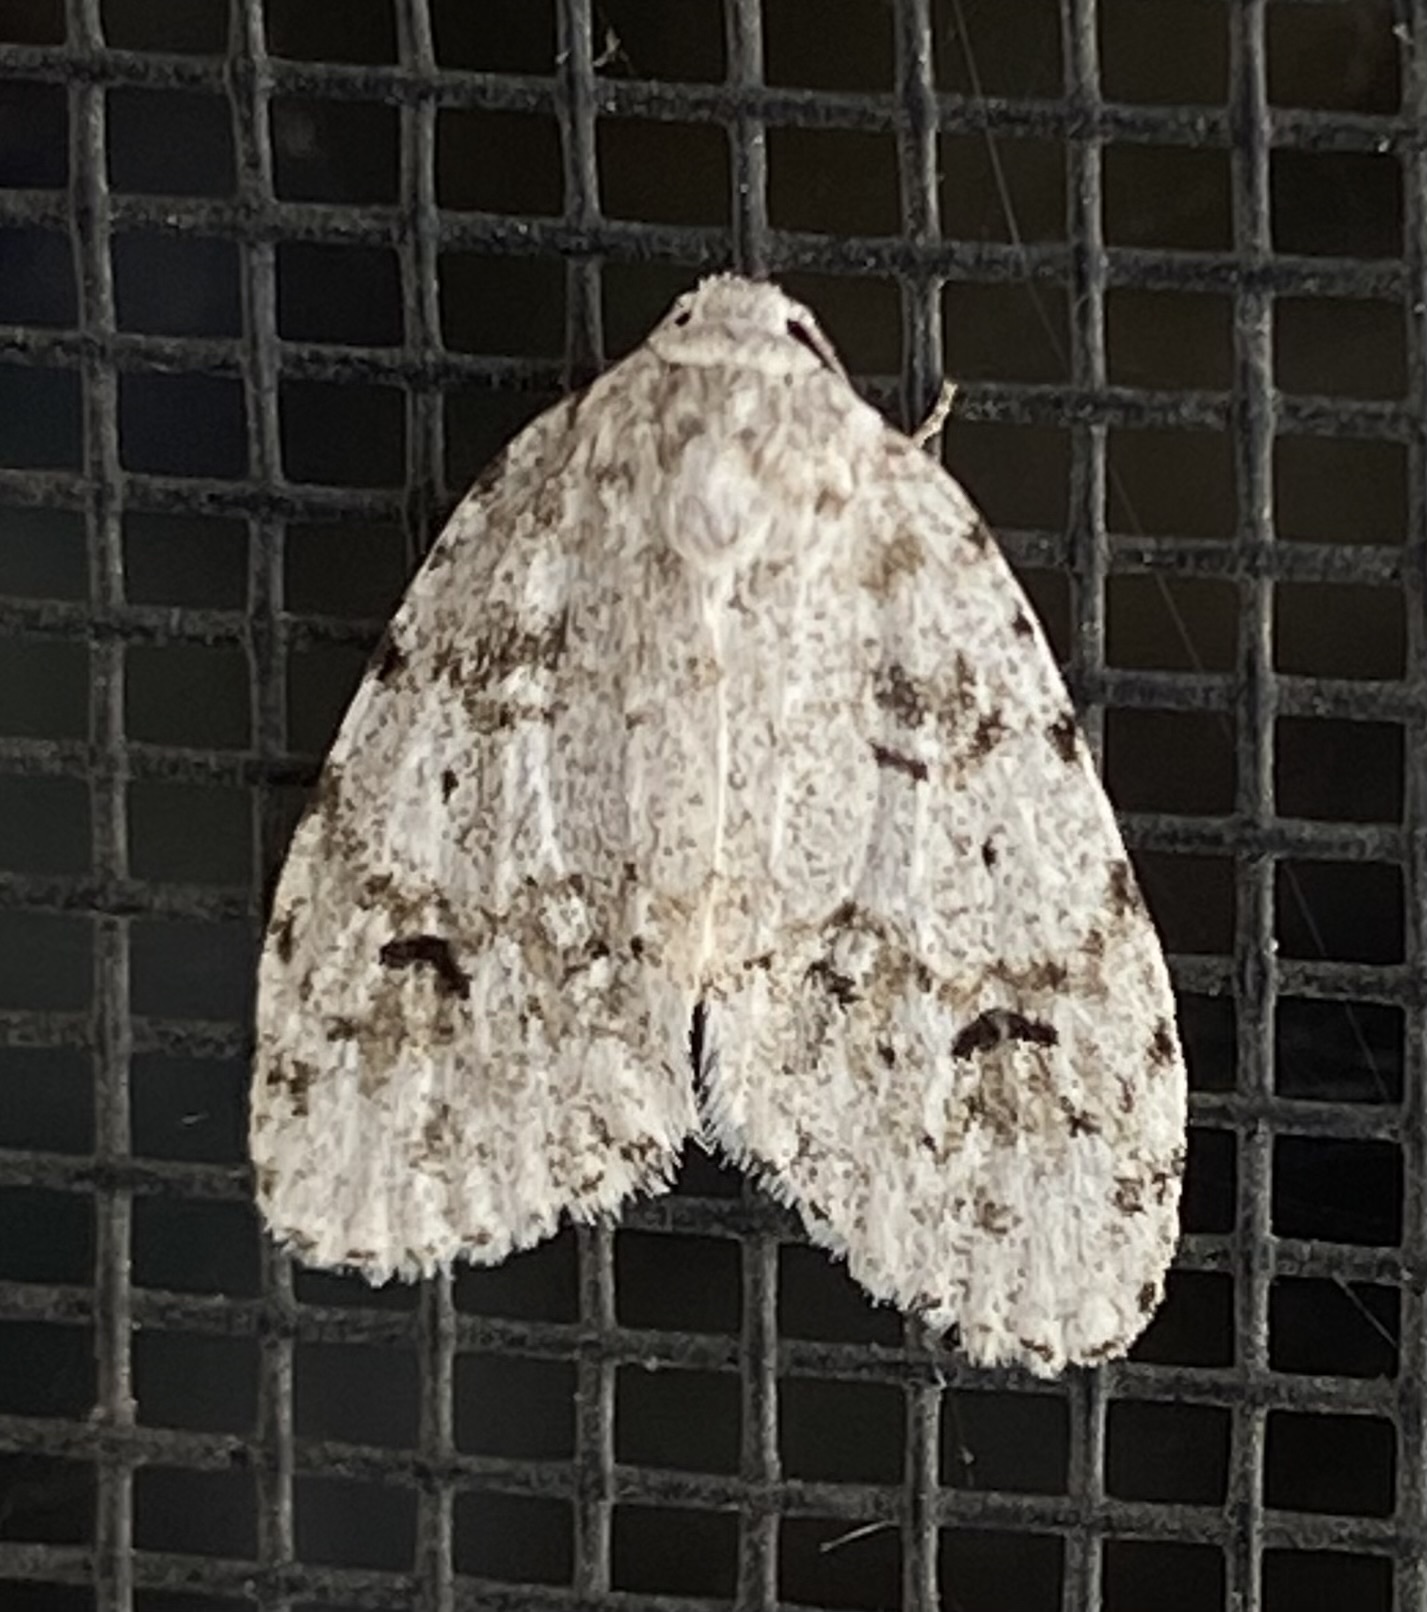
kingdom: Animalia
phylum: Arthropoda
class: Insecta
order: Lepidoptera
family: Erebidae
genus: Clemensia
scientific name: Clemensia albata
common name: Little white lichen moth
